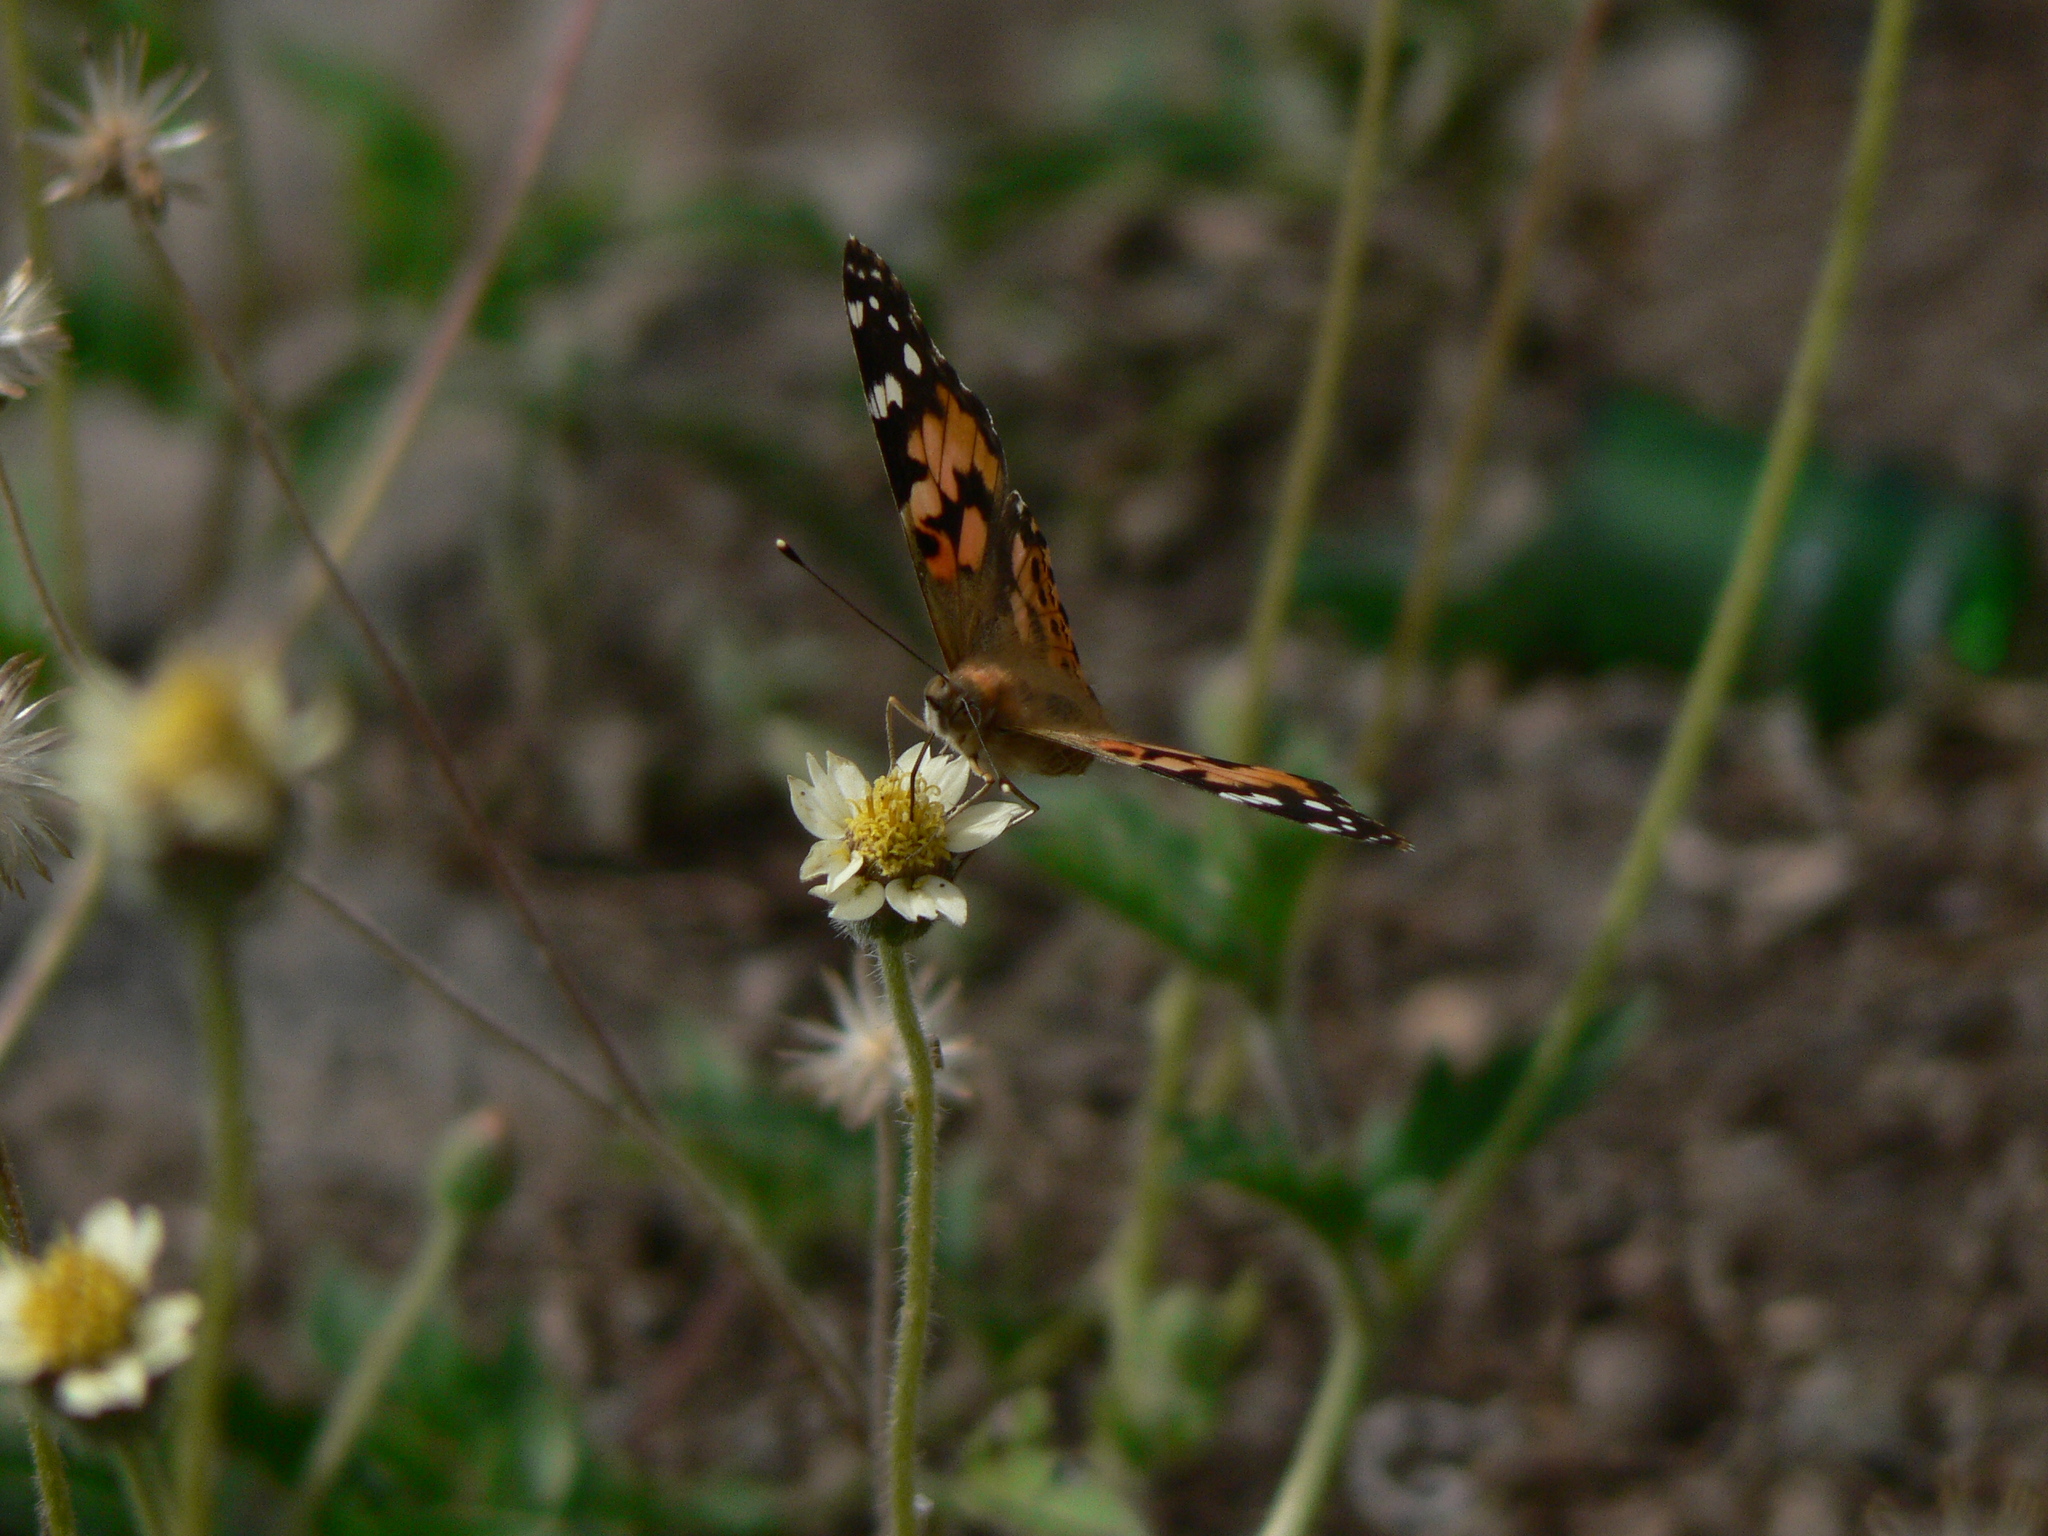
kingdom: Animalia
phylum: Arthropoda
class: Insecta
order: Lepidoptera
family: Nymphalidae
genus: Vanessa
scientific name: Vanessa cardui
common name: Painted lady
